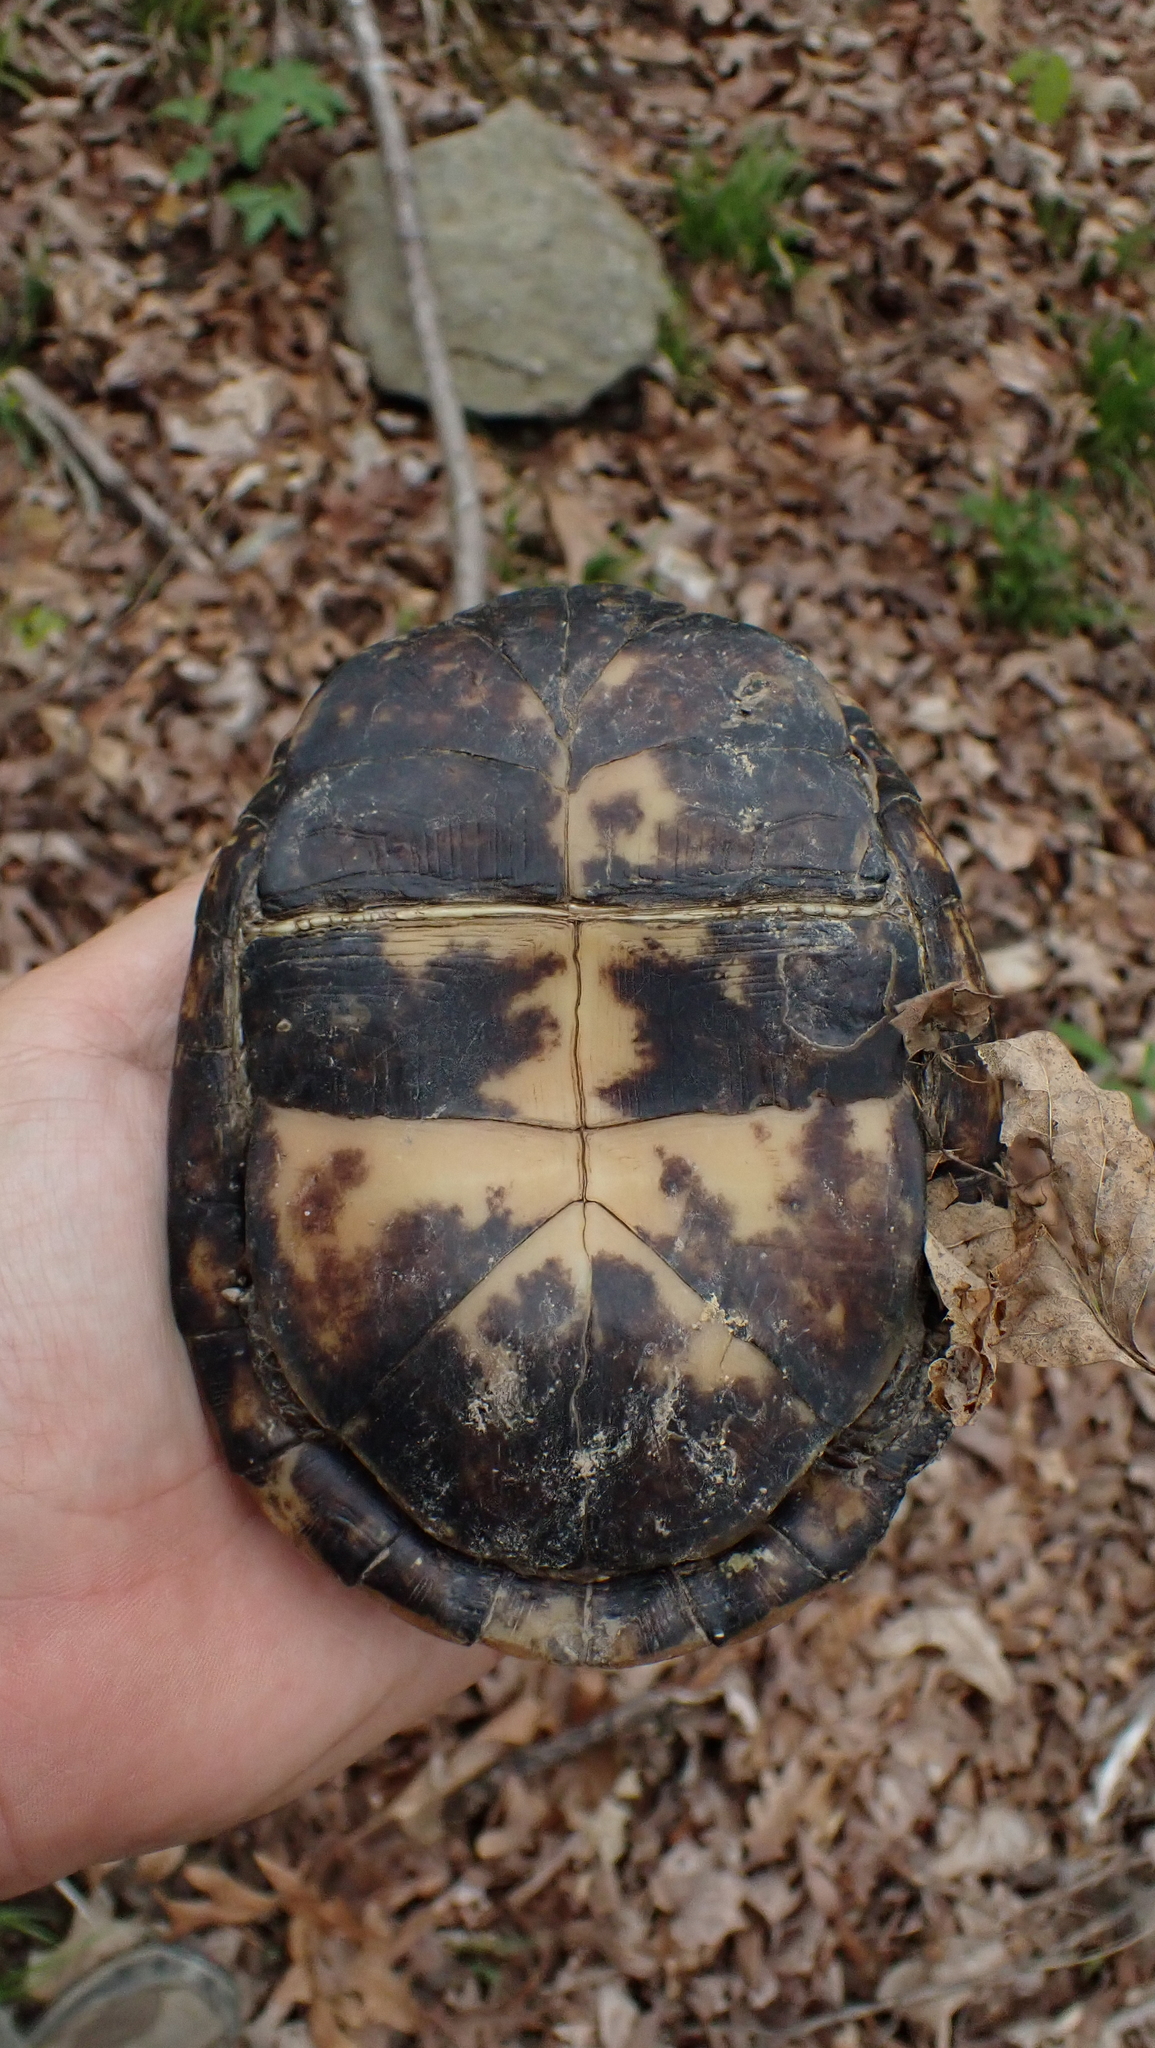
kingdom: Animalia
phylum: Chordata
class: Testudines
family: Emydidae
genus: Terrapene
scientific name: Terrapene carolina
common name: Common box turtle
